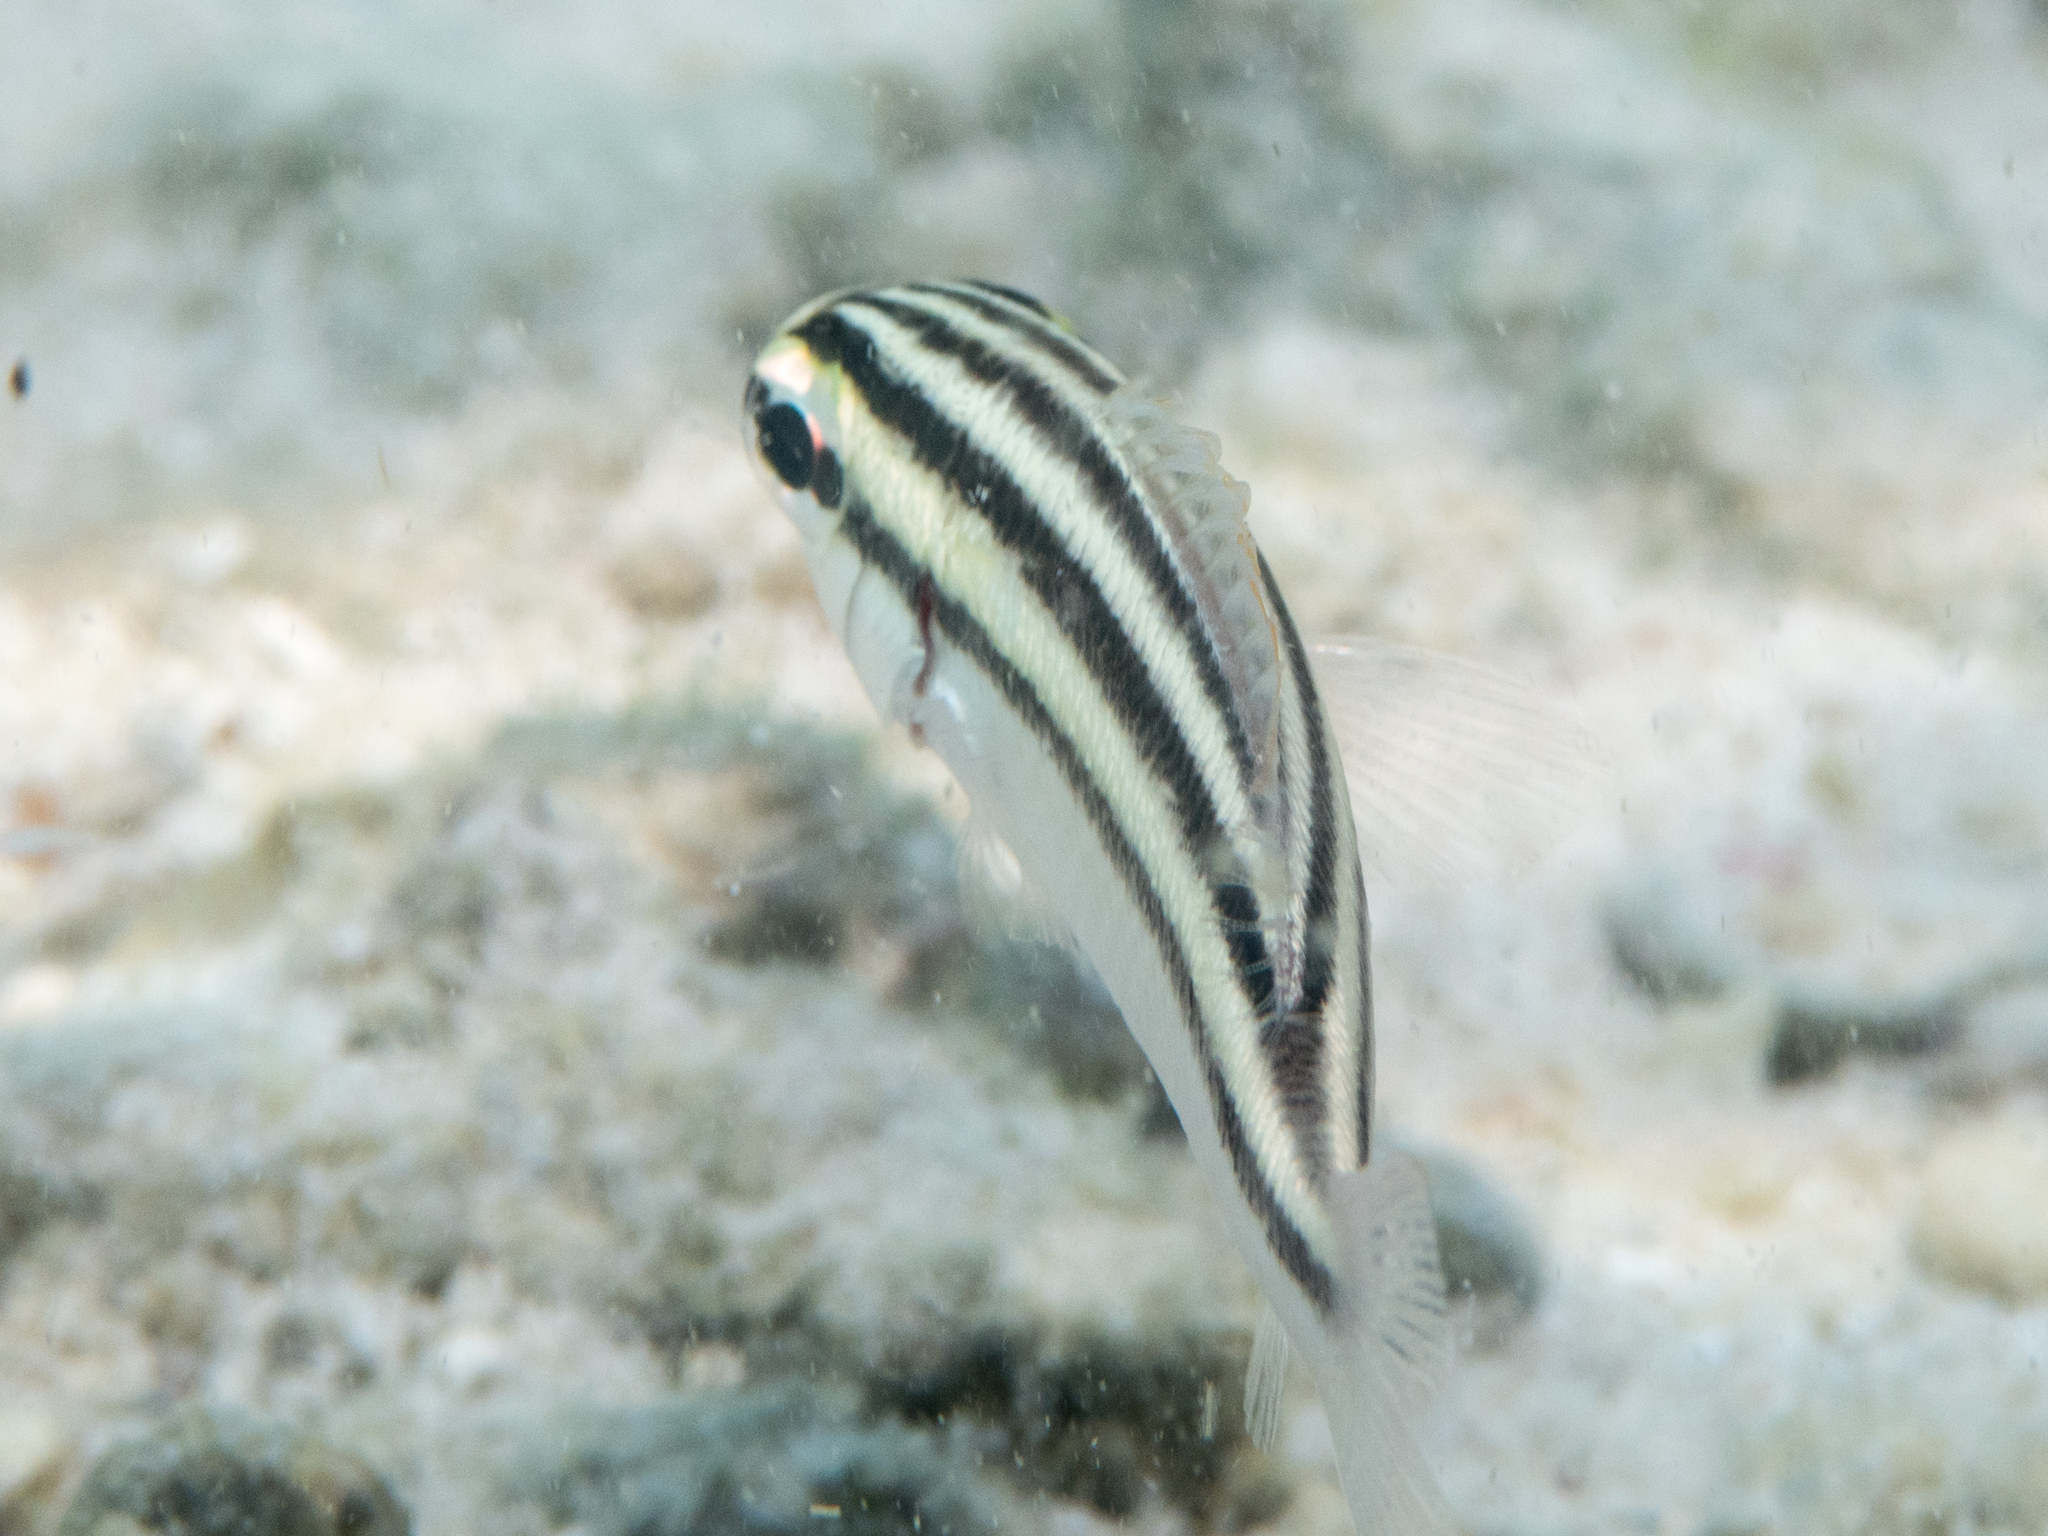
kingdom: Animalia
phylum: Chordata
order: Perciformes
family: Nemipteridae
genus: Scolopsis
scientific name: Scolopsis ghanam
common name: Arabian monocle bream
